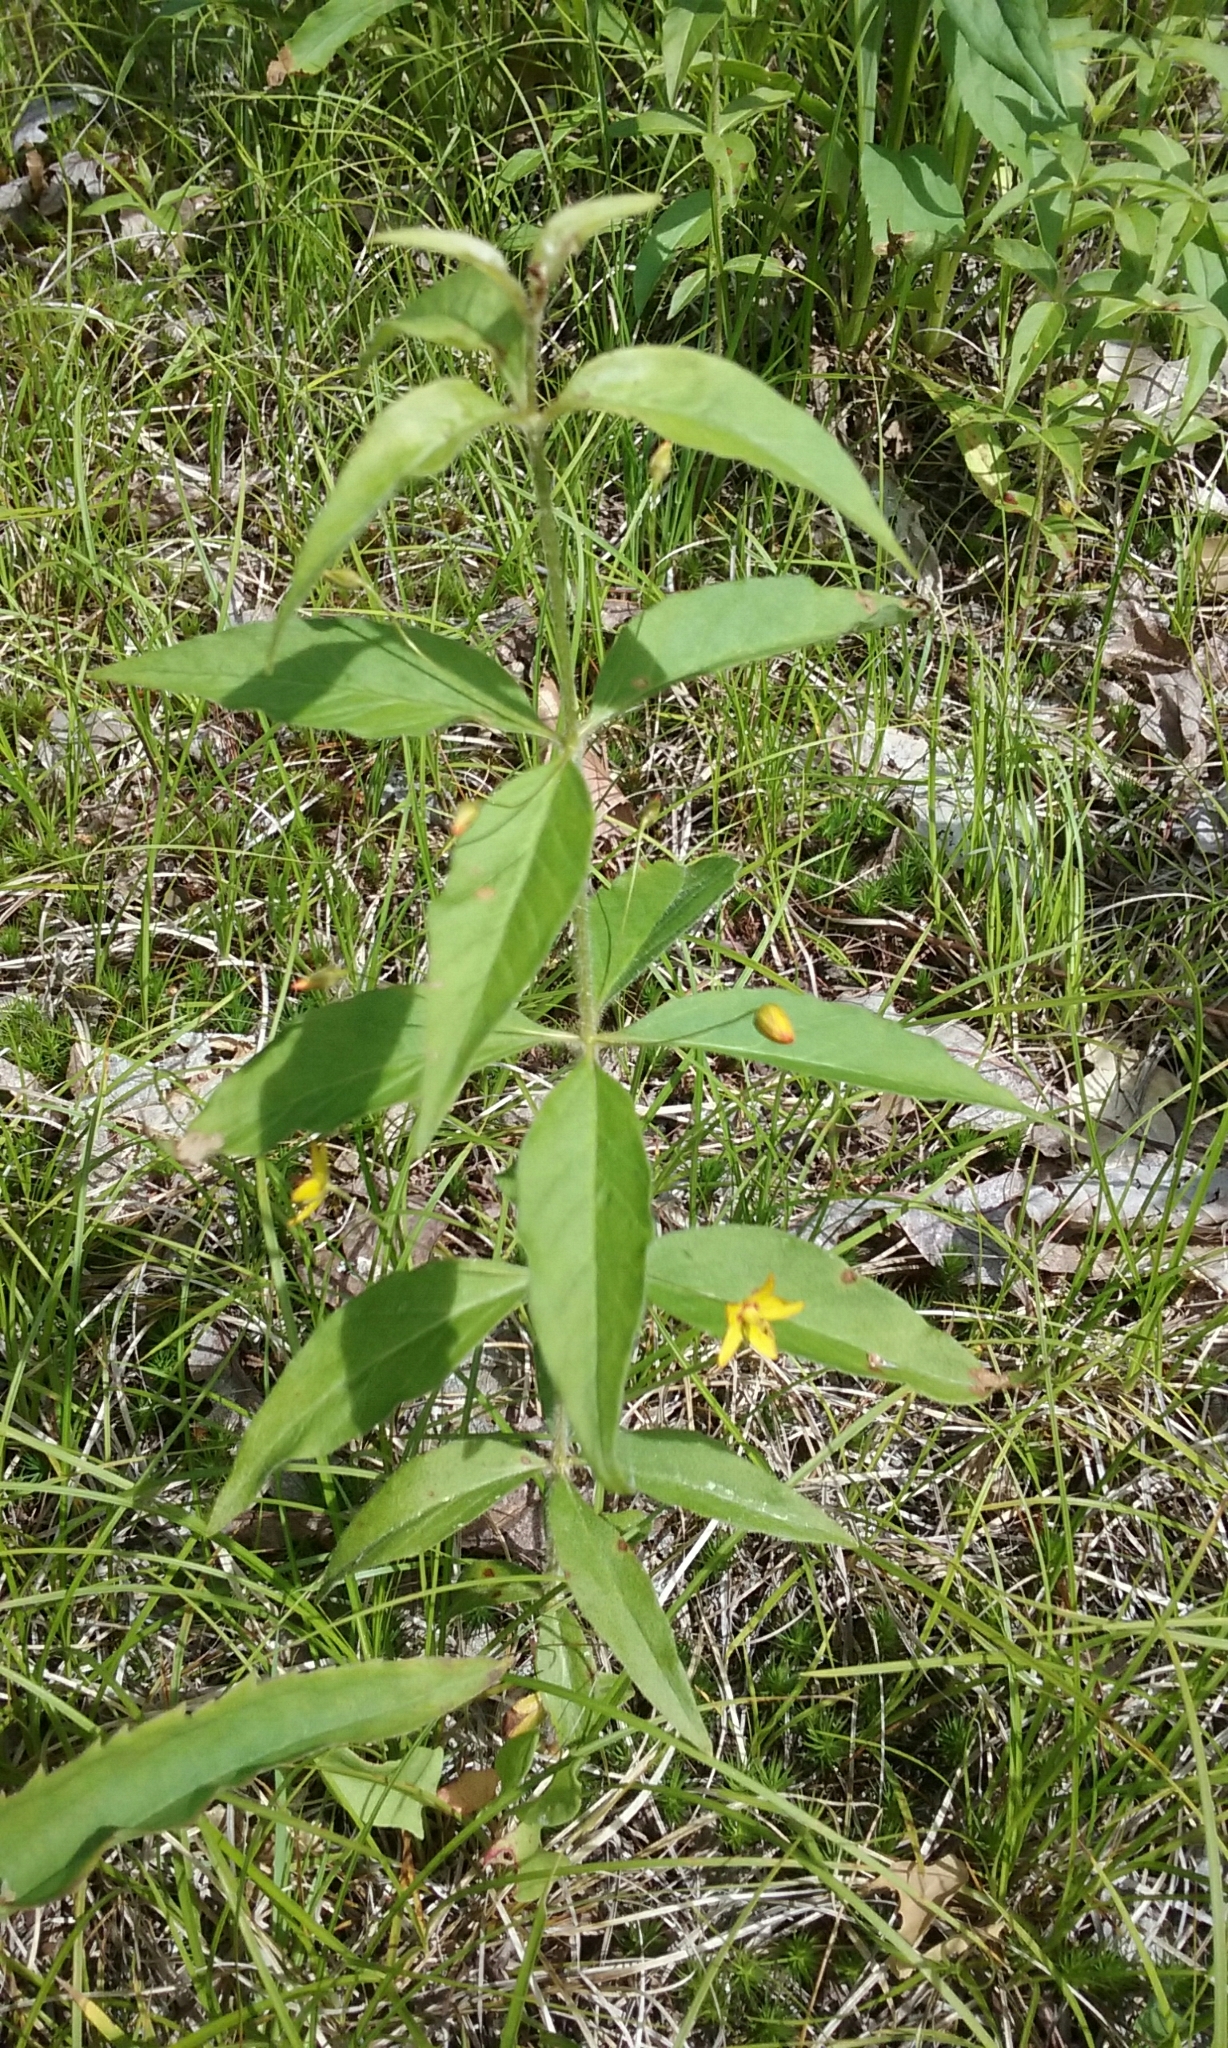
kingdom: Plantae
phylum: Tracheophyta
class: Magnoliopsida
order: Ericales
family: Primulaceae
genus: Lysimachia
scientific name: Lysimachia quadrifolia
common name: Whorled loosestrife
